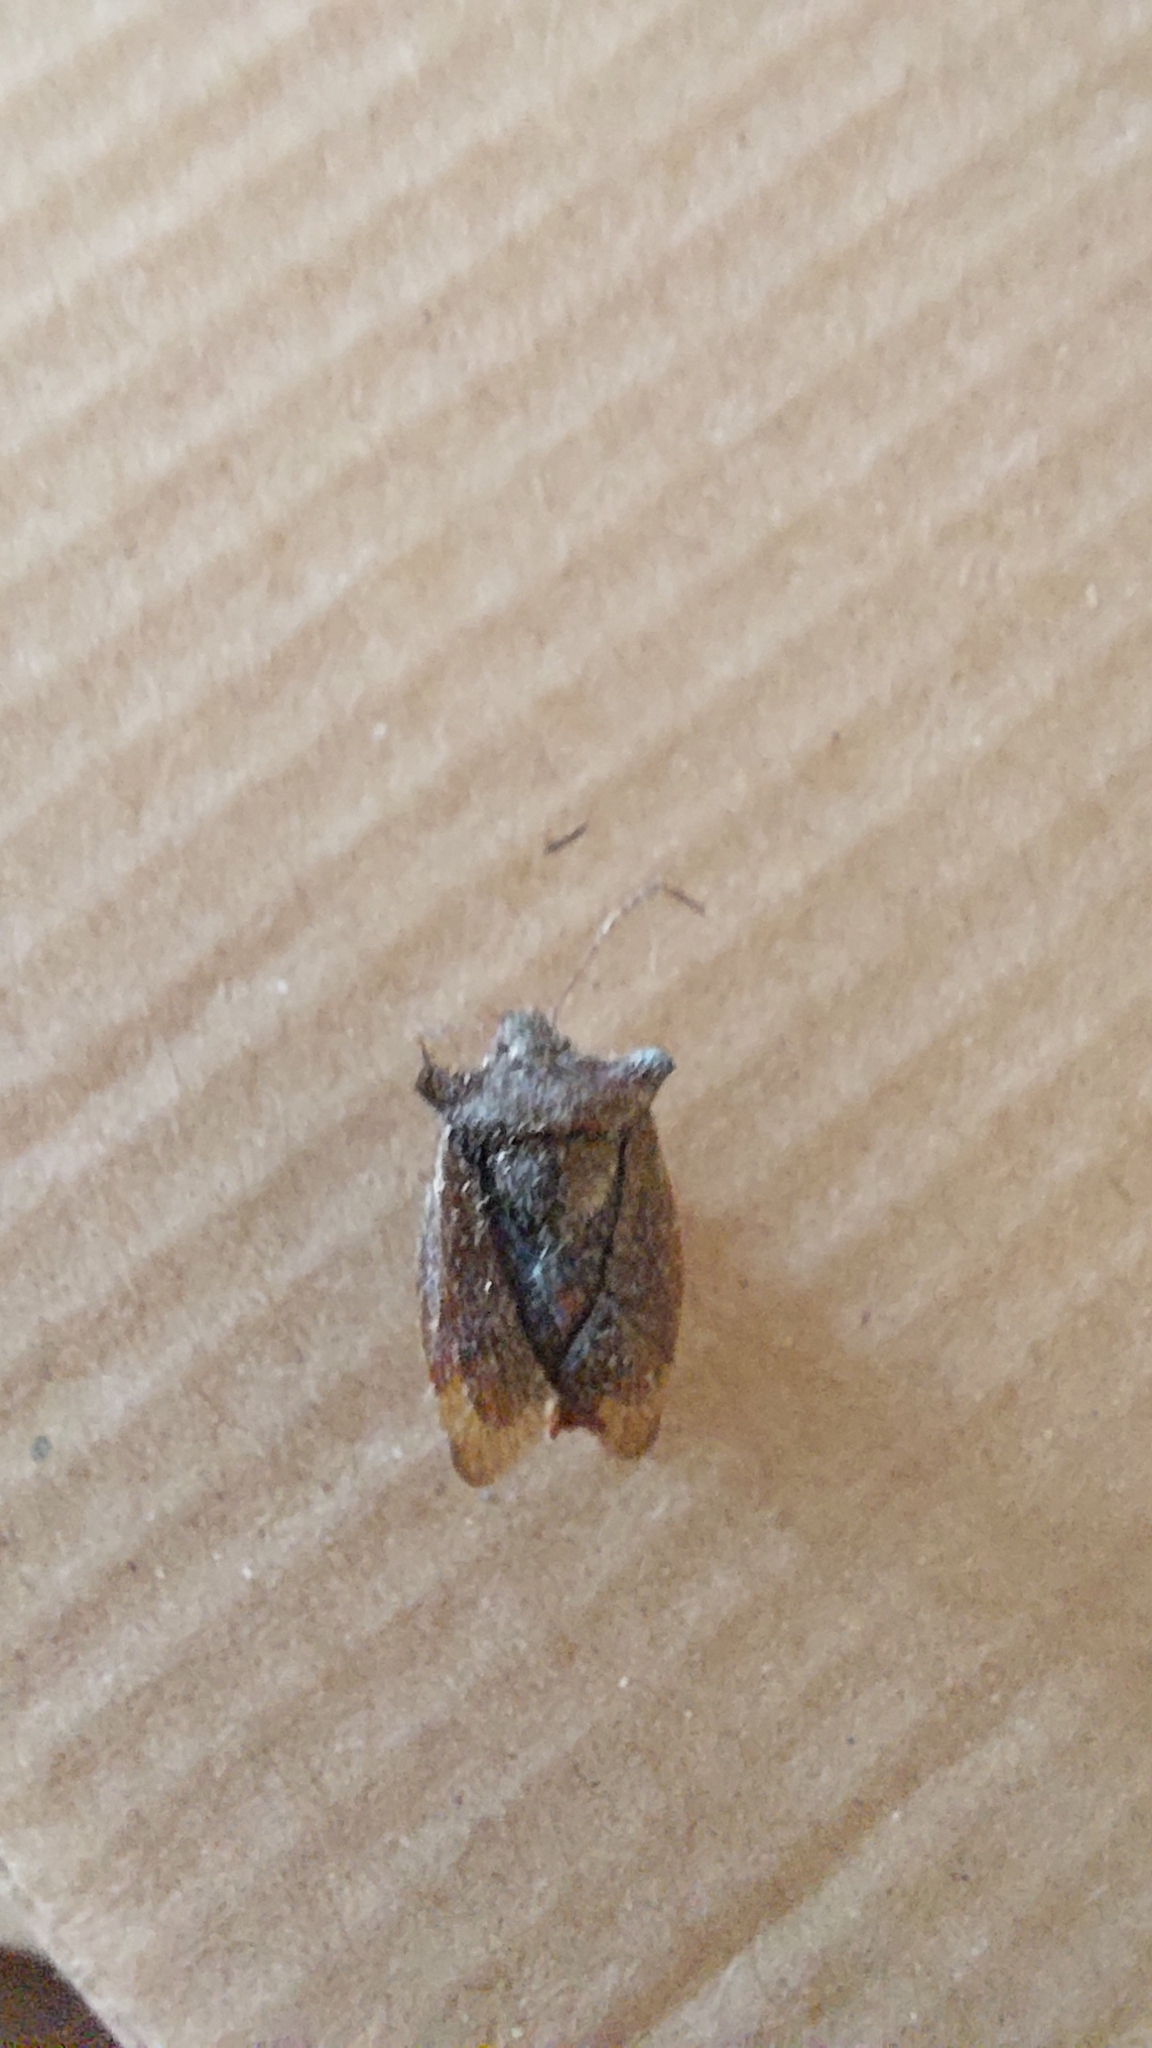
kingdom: Animalia
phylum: Arthropoda
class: Insecta
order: Hemiptera
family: Pentatomidae
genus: Pentatoma
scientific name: Pentatoma rufipes
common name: Forest bug
